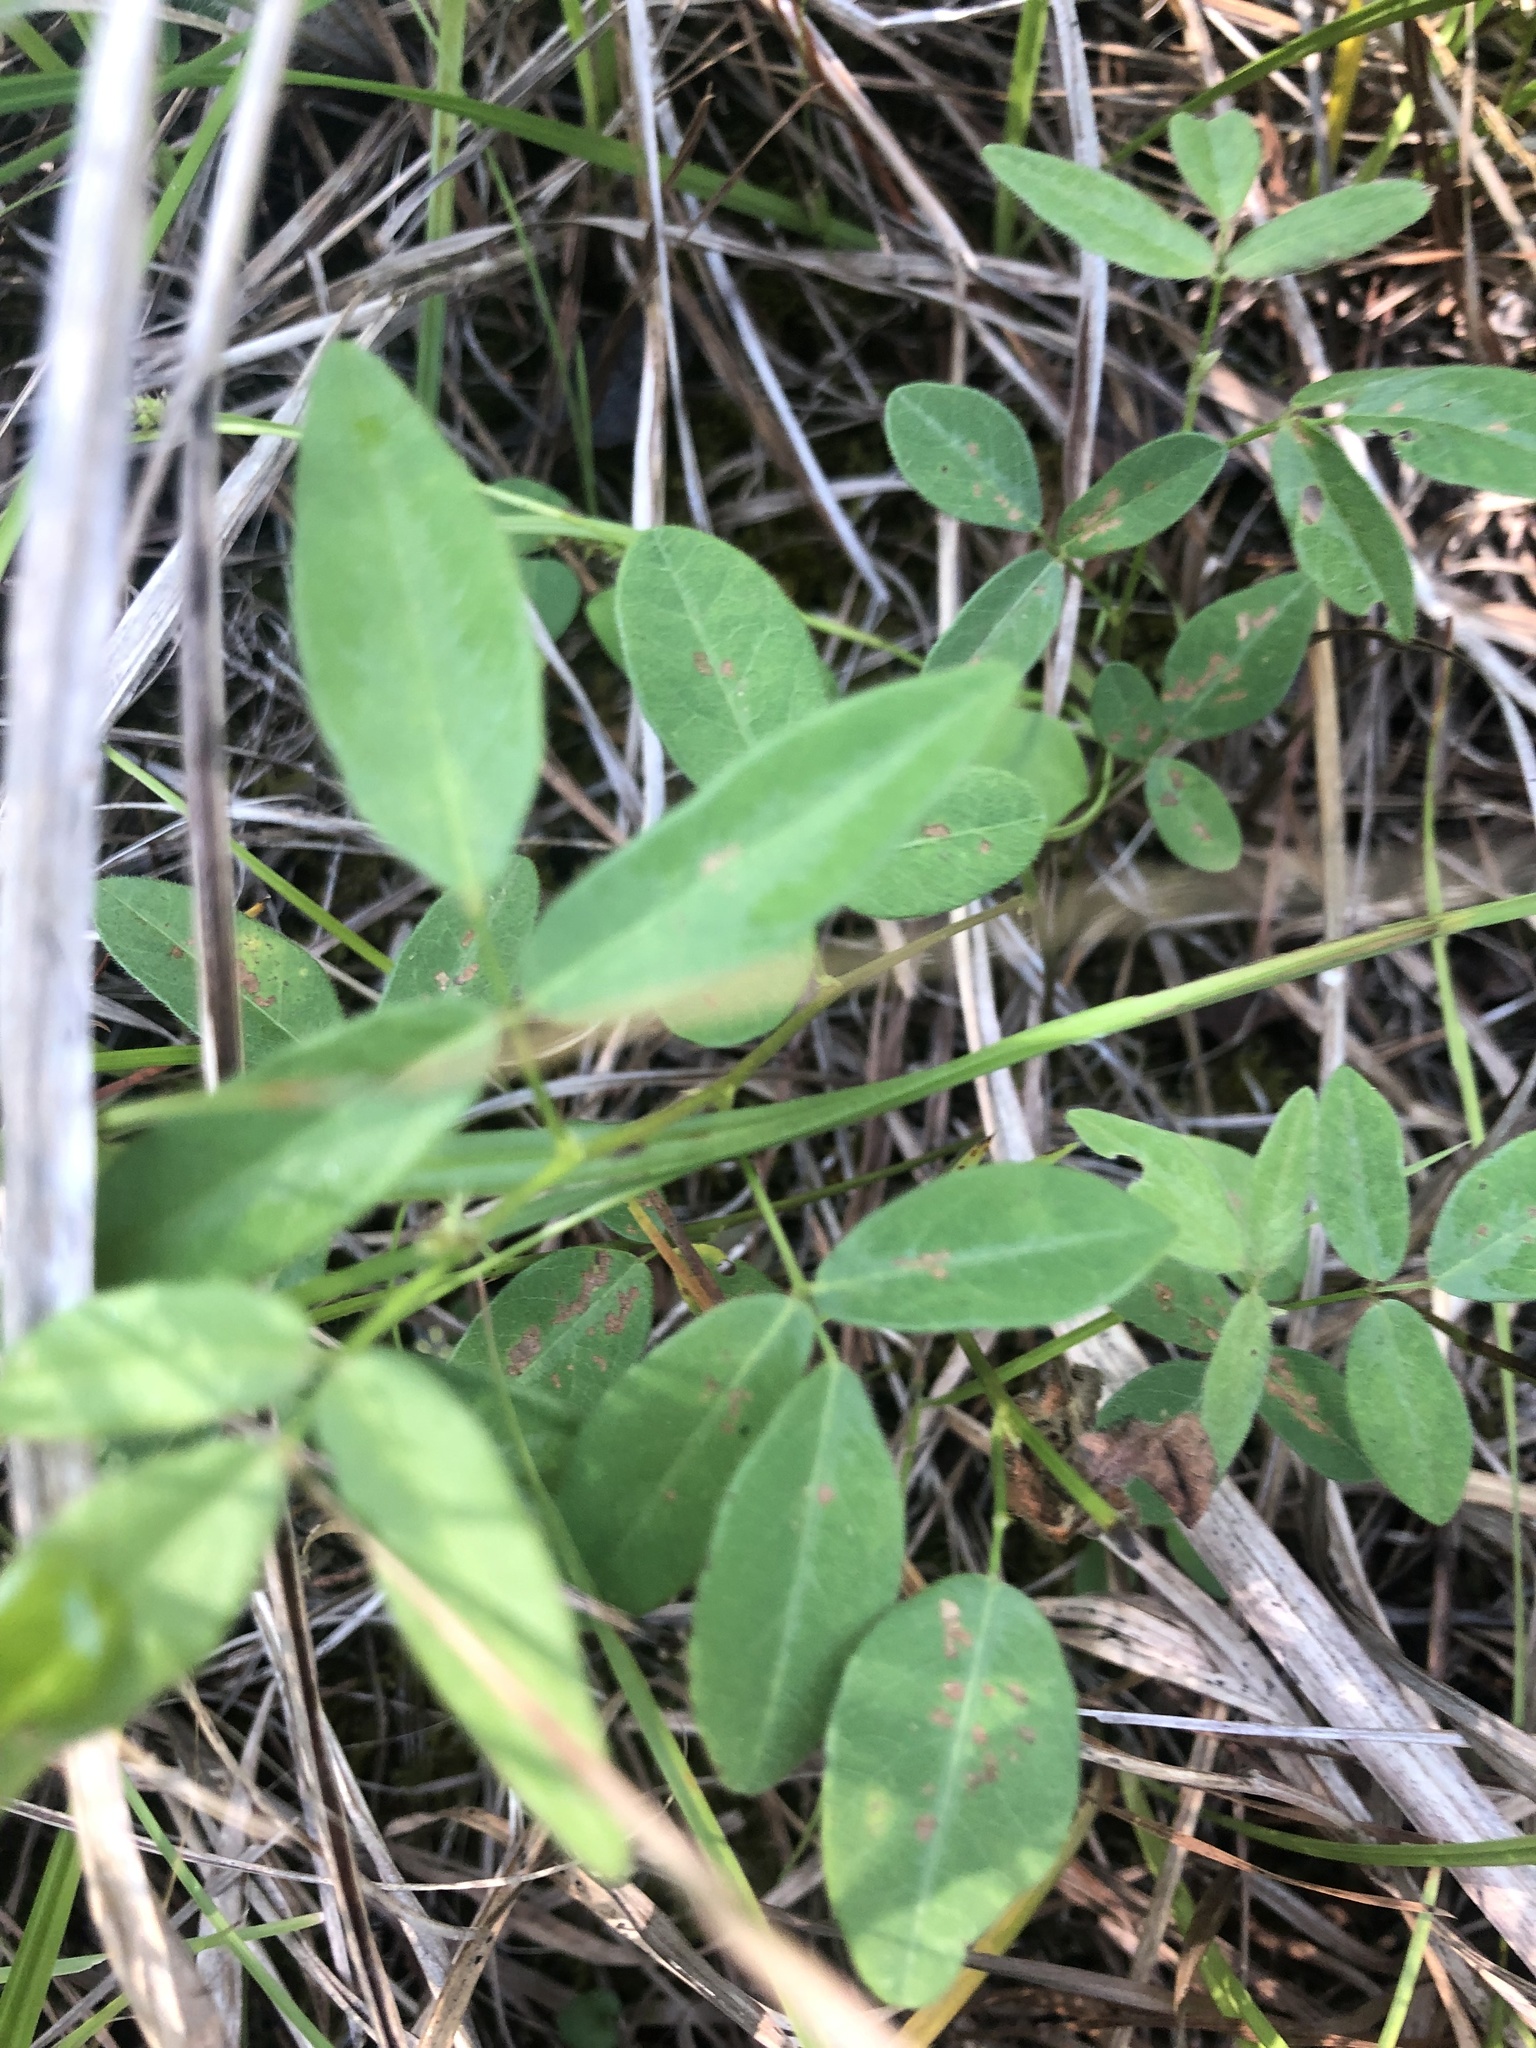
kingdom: Plantae
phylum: Tracheophyta
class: Magnoliopsida
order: Fabales
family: Fabaceae
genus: Desmodium
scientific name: Desmodium paniculatum
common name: Panicled tick-clover
